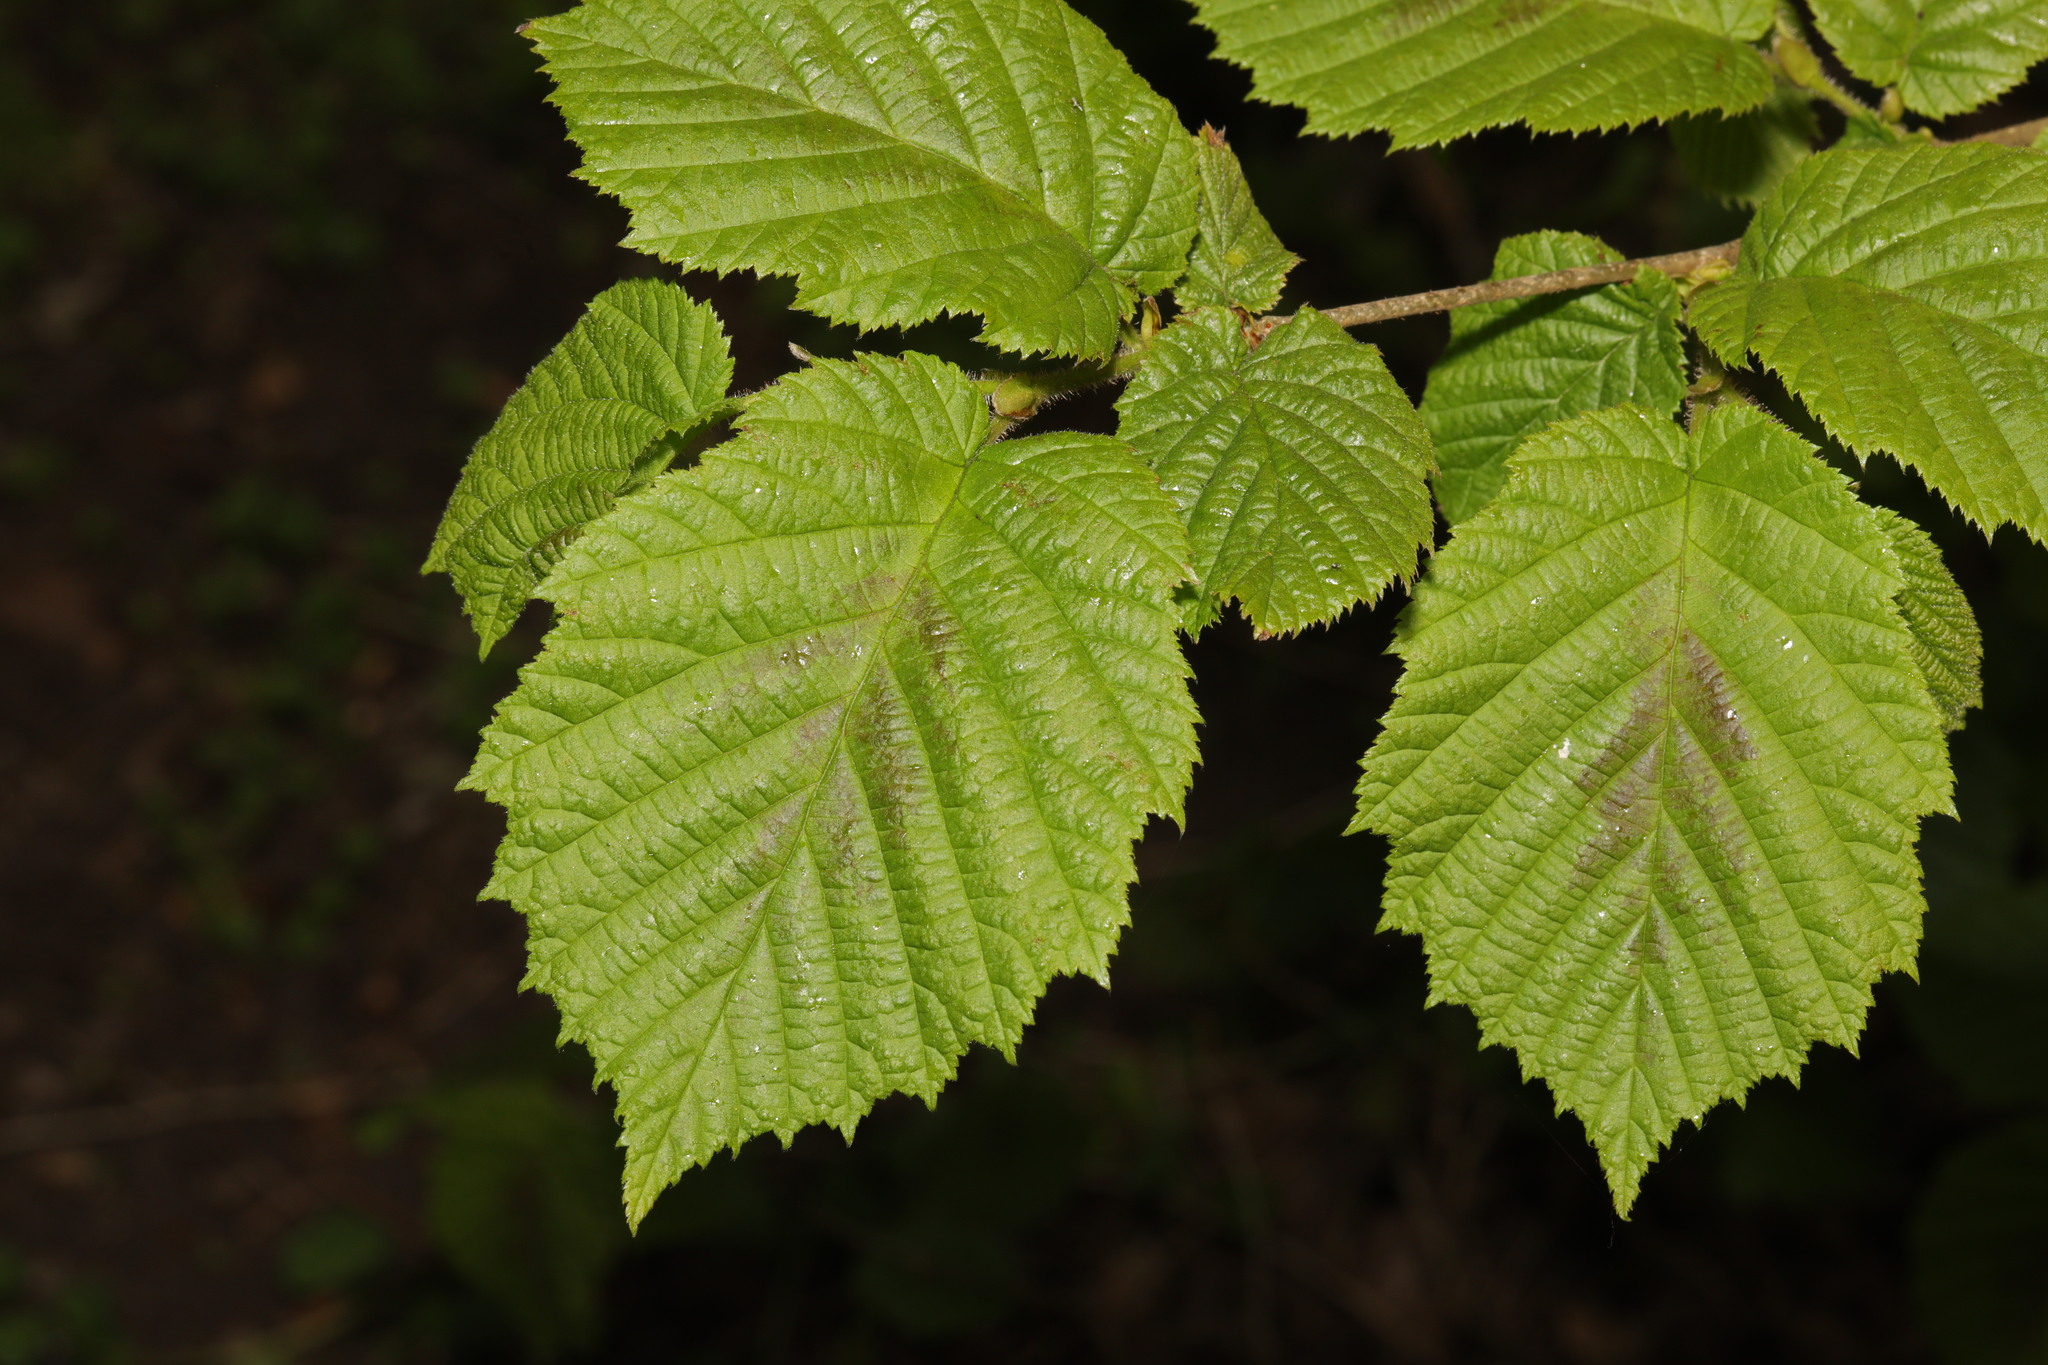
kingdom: Plantae
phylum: Tracheophyta
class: Magnoliopsida
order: Fagales
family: Betulaceae
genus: Corylus
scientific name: Corylus avellana
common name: European hazel
